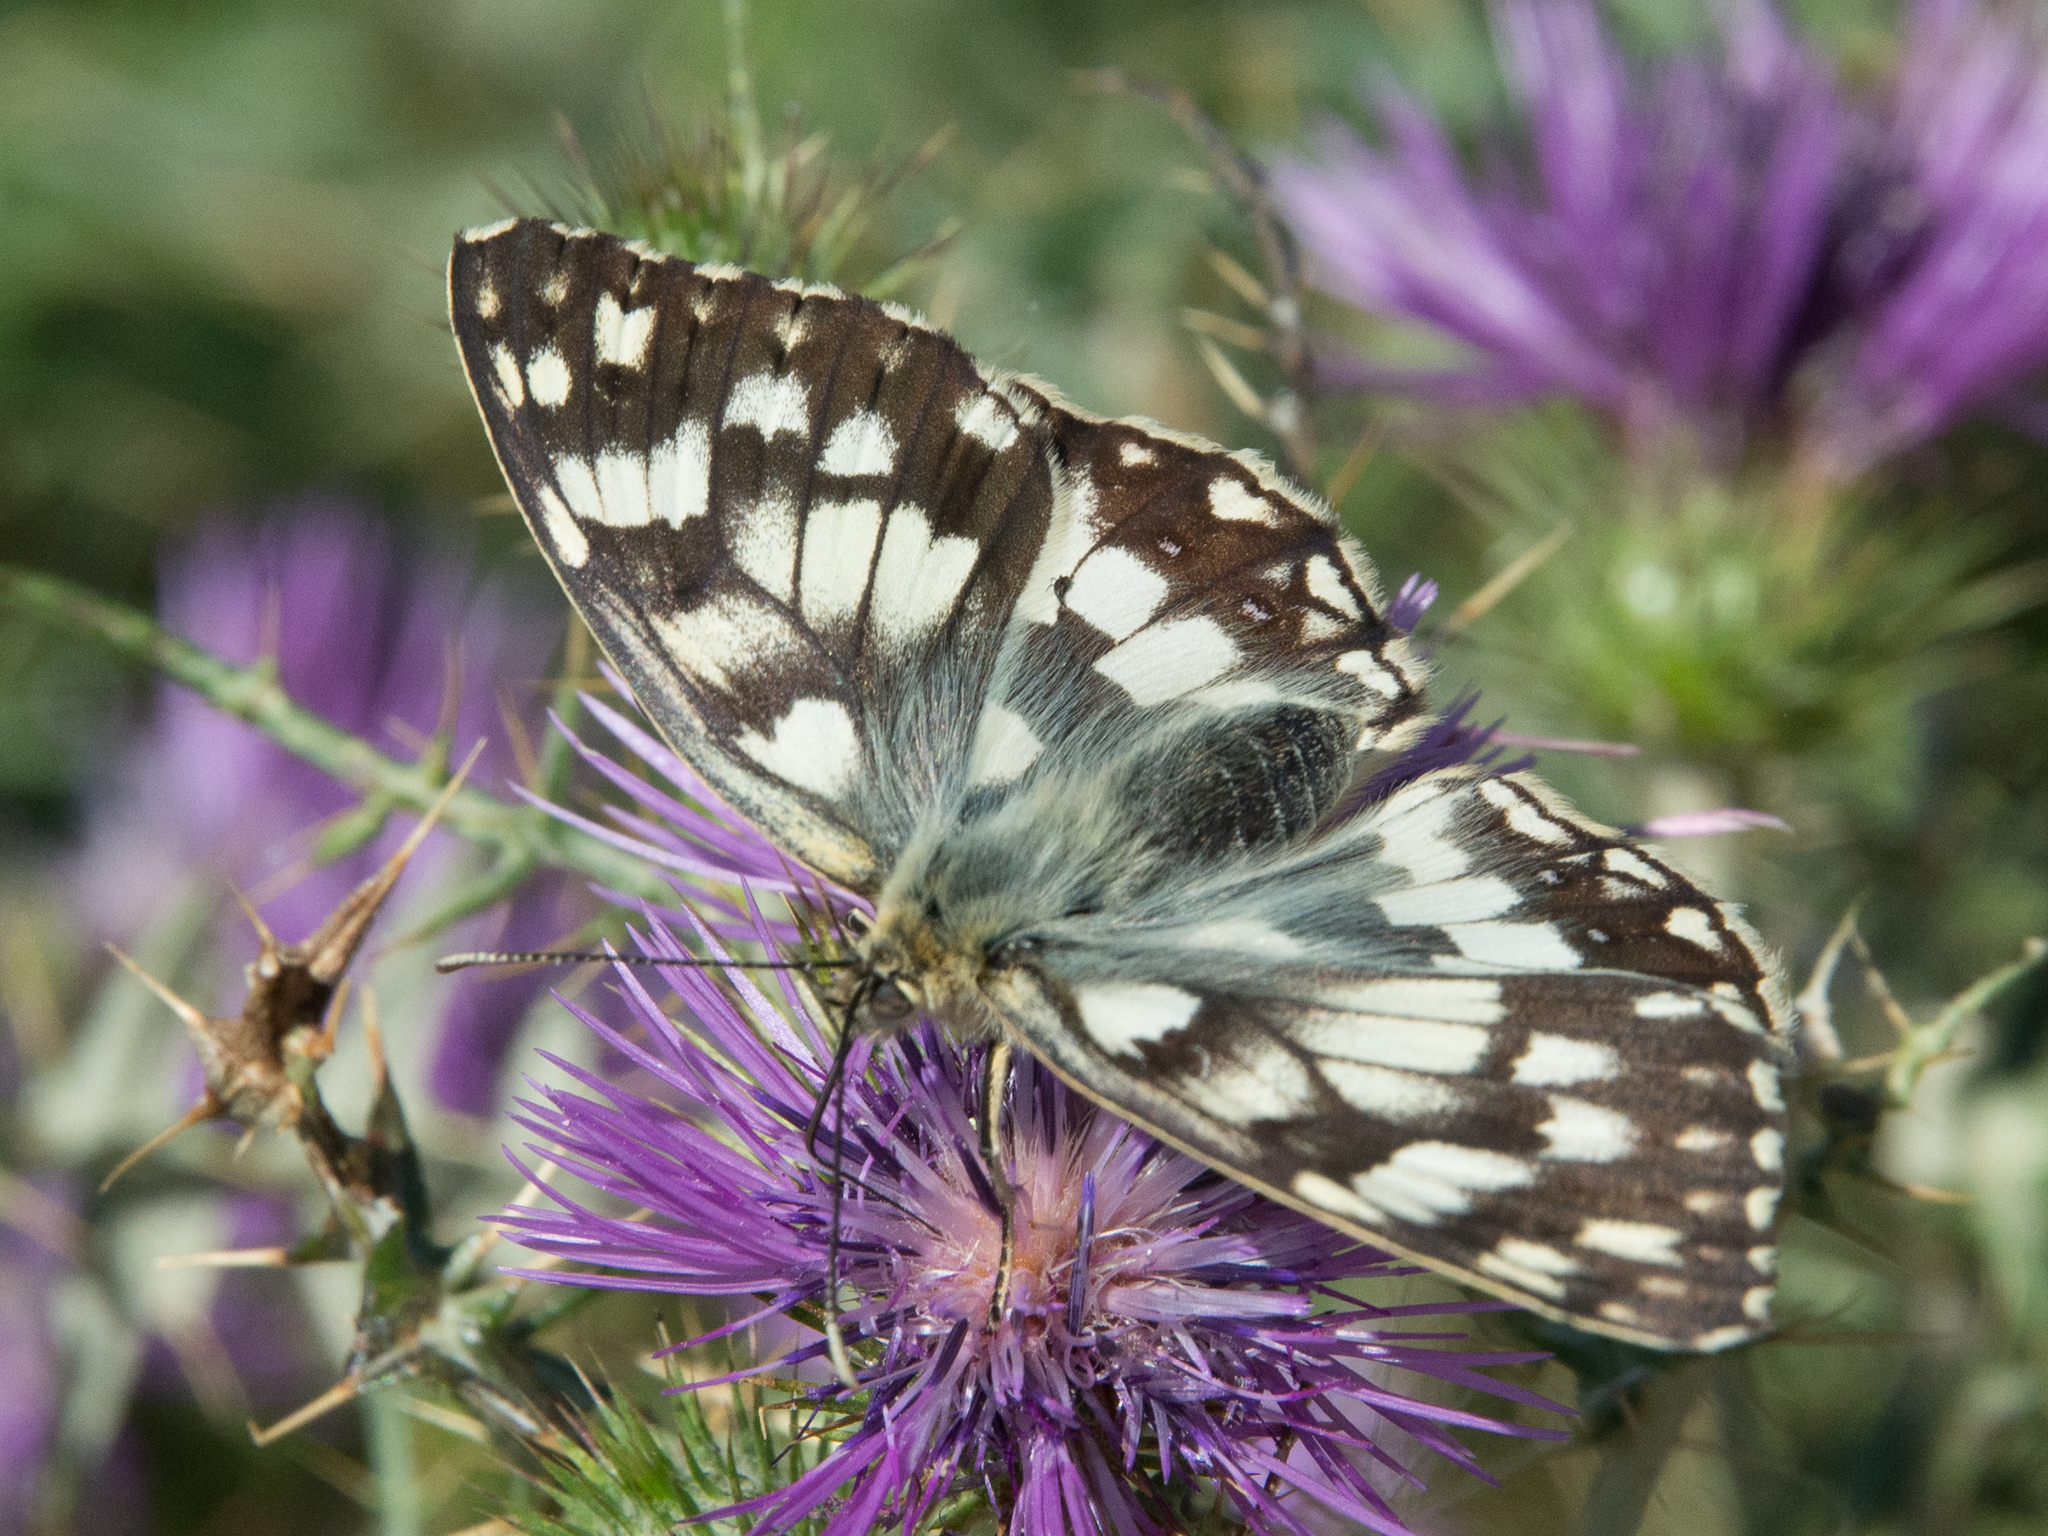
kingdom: Animalia
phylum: Arthropoda
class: Insecta
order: Lepidoptera
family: Nymphalidae
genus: Melanargia
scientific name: Melanargia japygia
